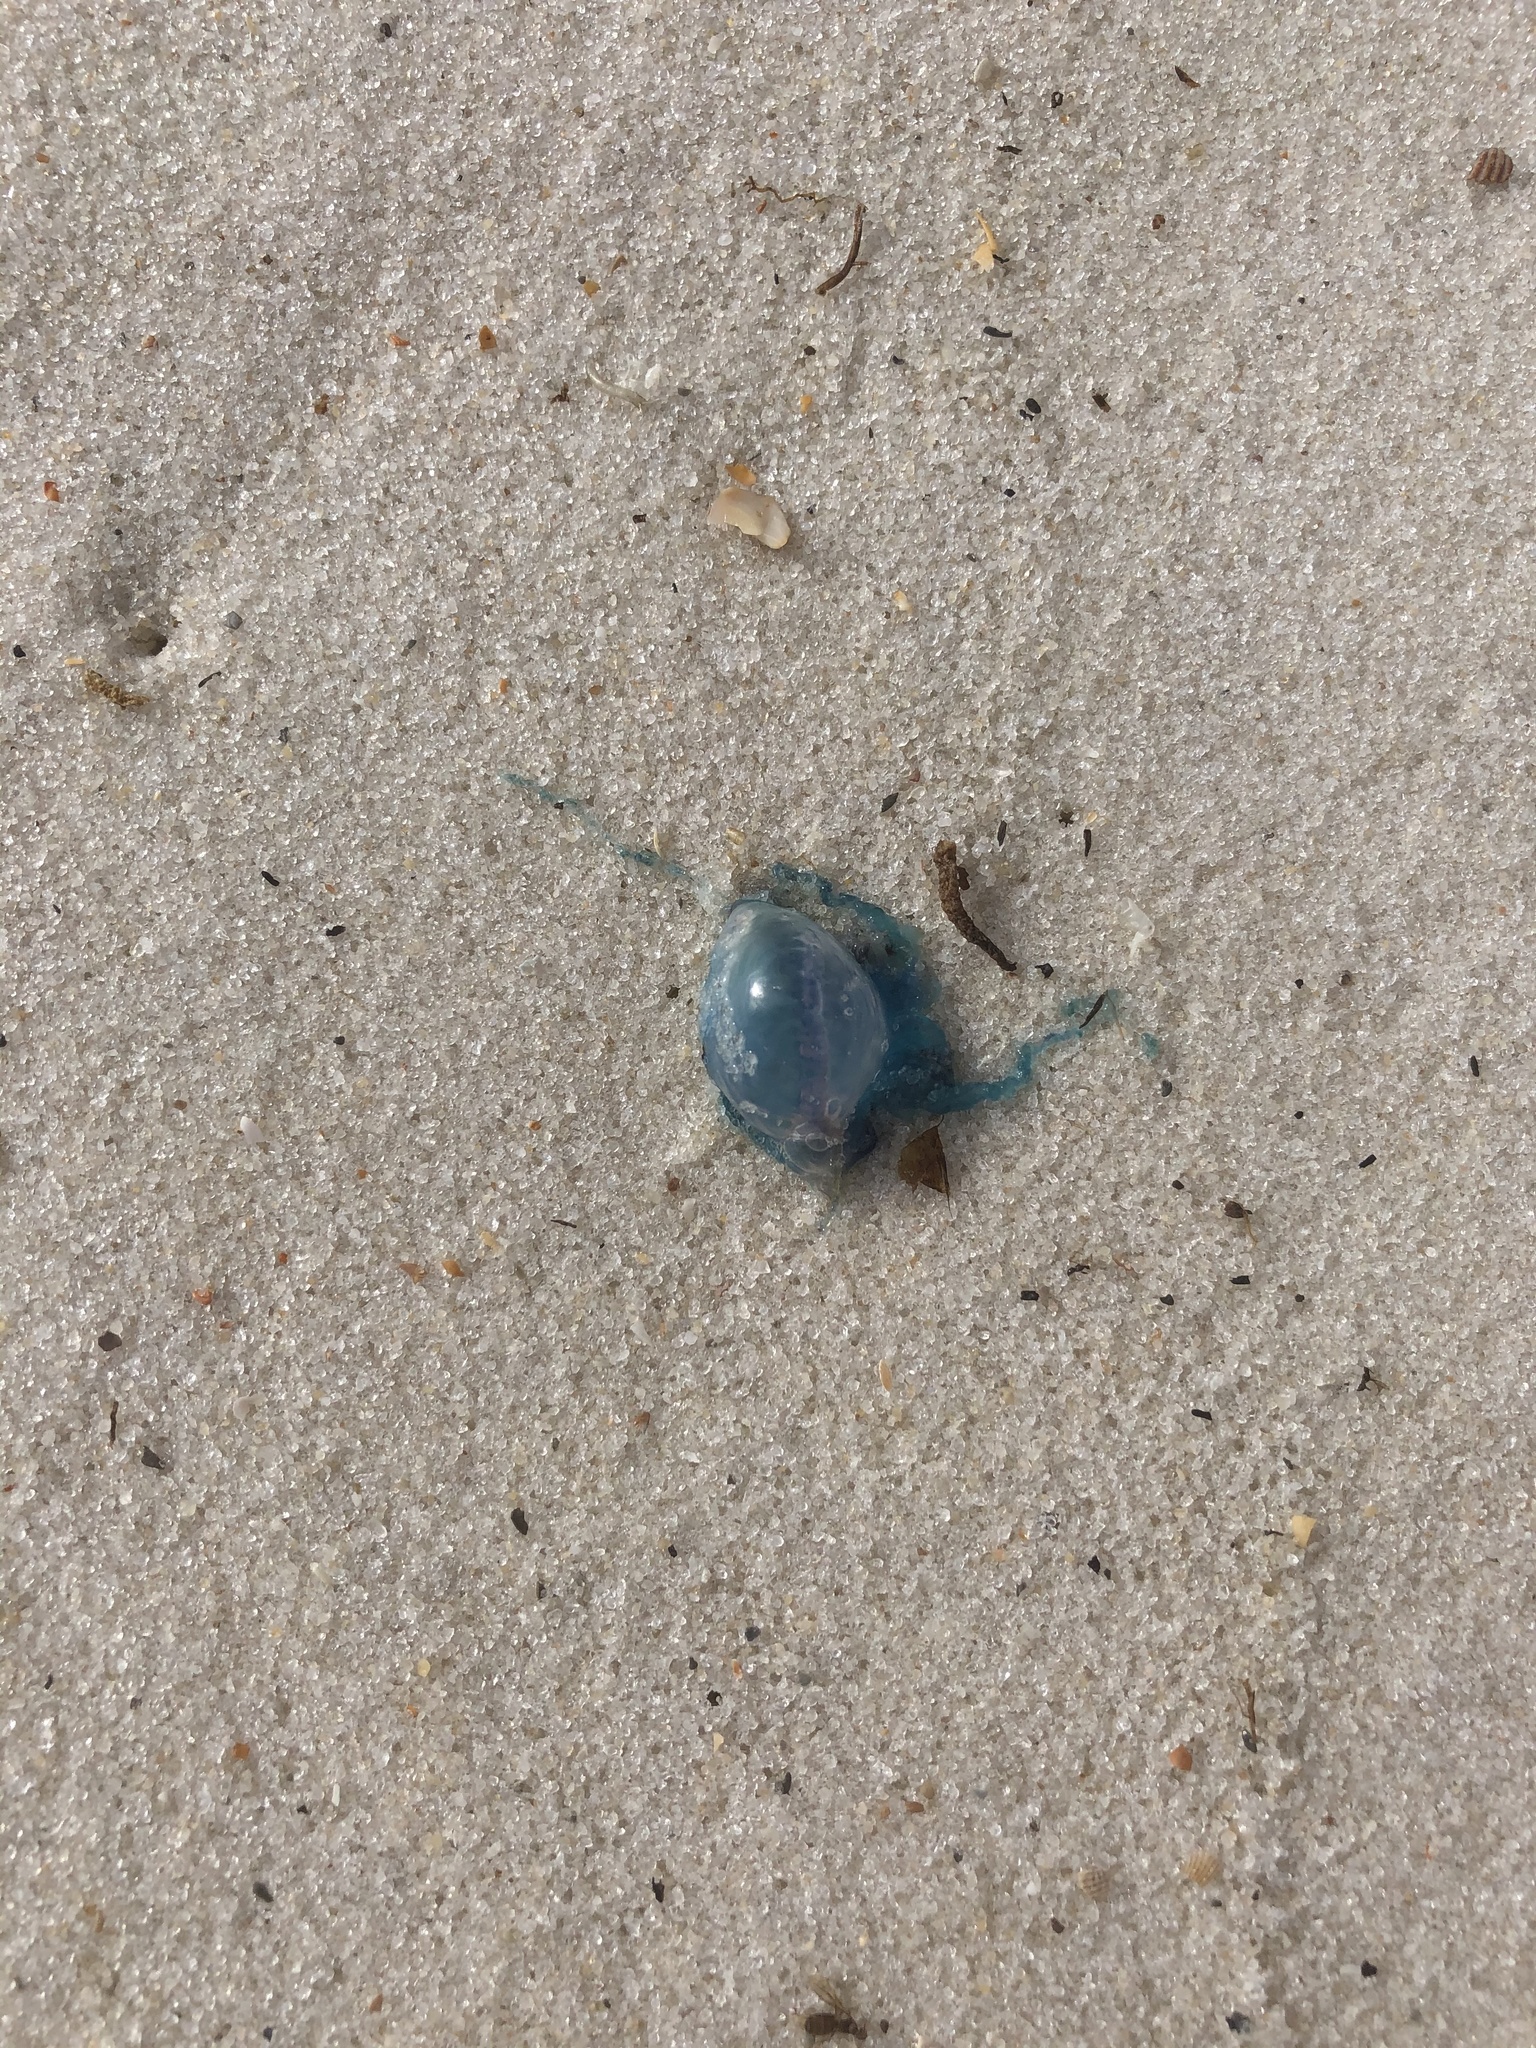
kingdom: Animalia
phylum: Cnidaria
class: Hydrozoa
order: Siphonophorae
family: Physaliidae
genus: Physalia
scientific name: Physalia physalis
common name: Portuguese man-of-war
